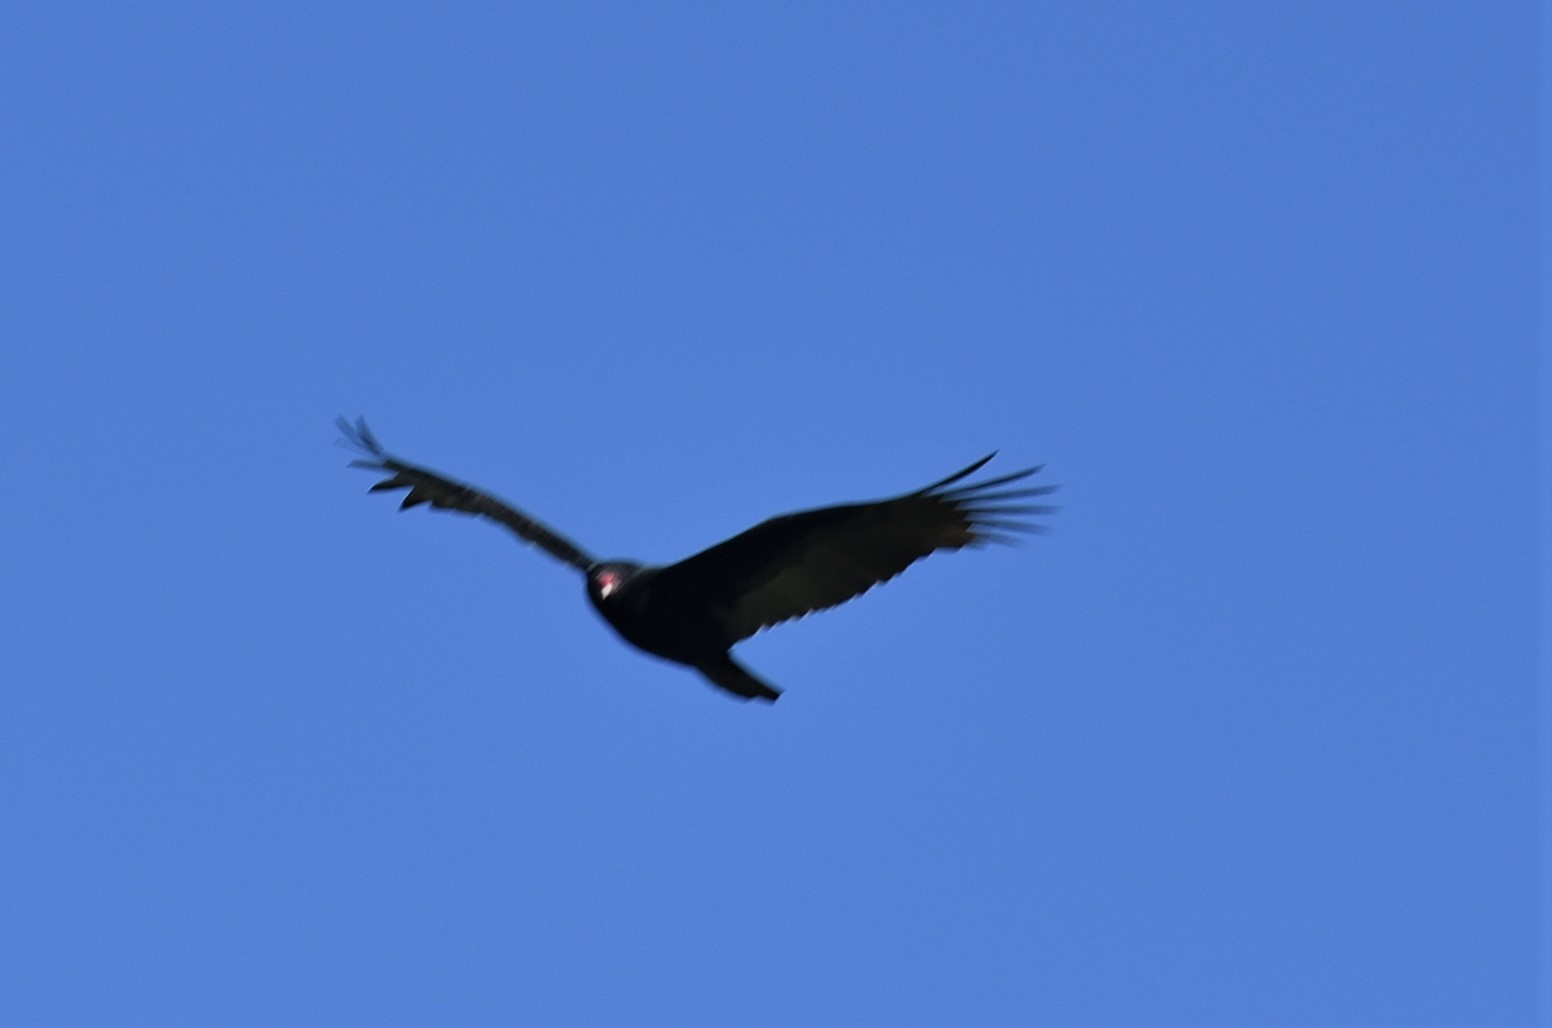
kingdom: Animalia
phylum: Chordata
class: Aves
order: Accipitriformes
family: Cathartidae
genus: Cathartes
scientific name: Cathartes aura
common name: Turkey vulture
